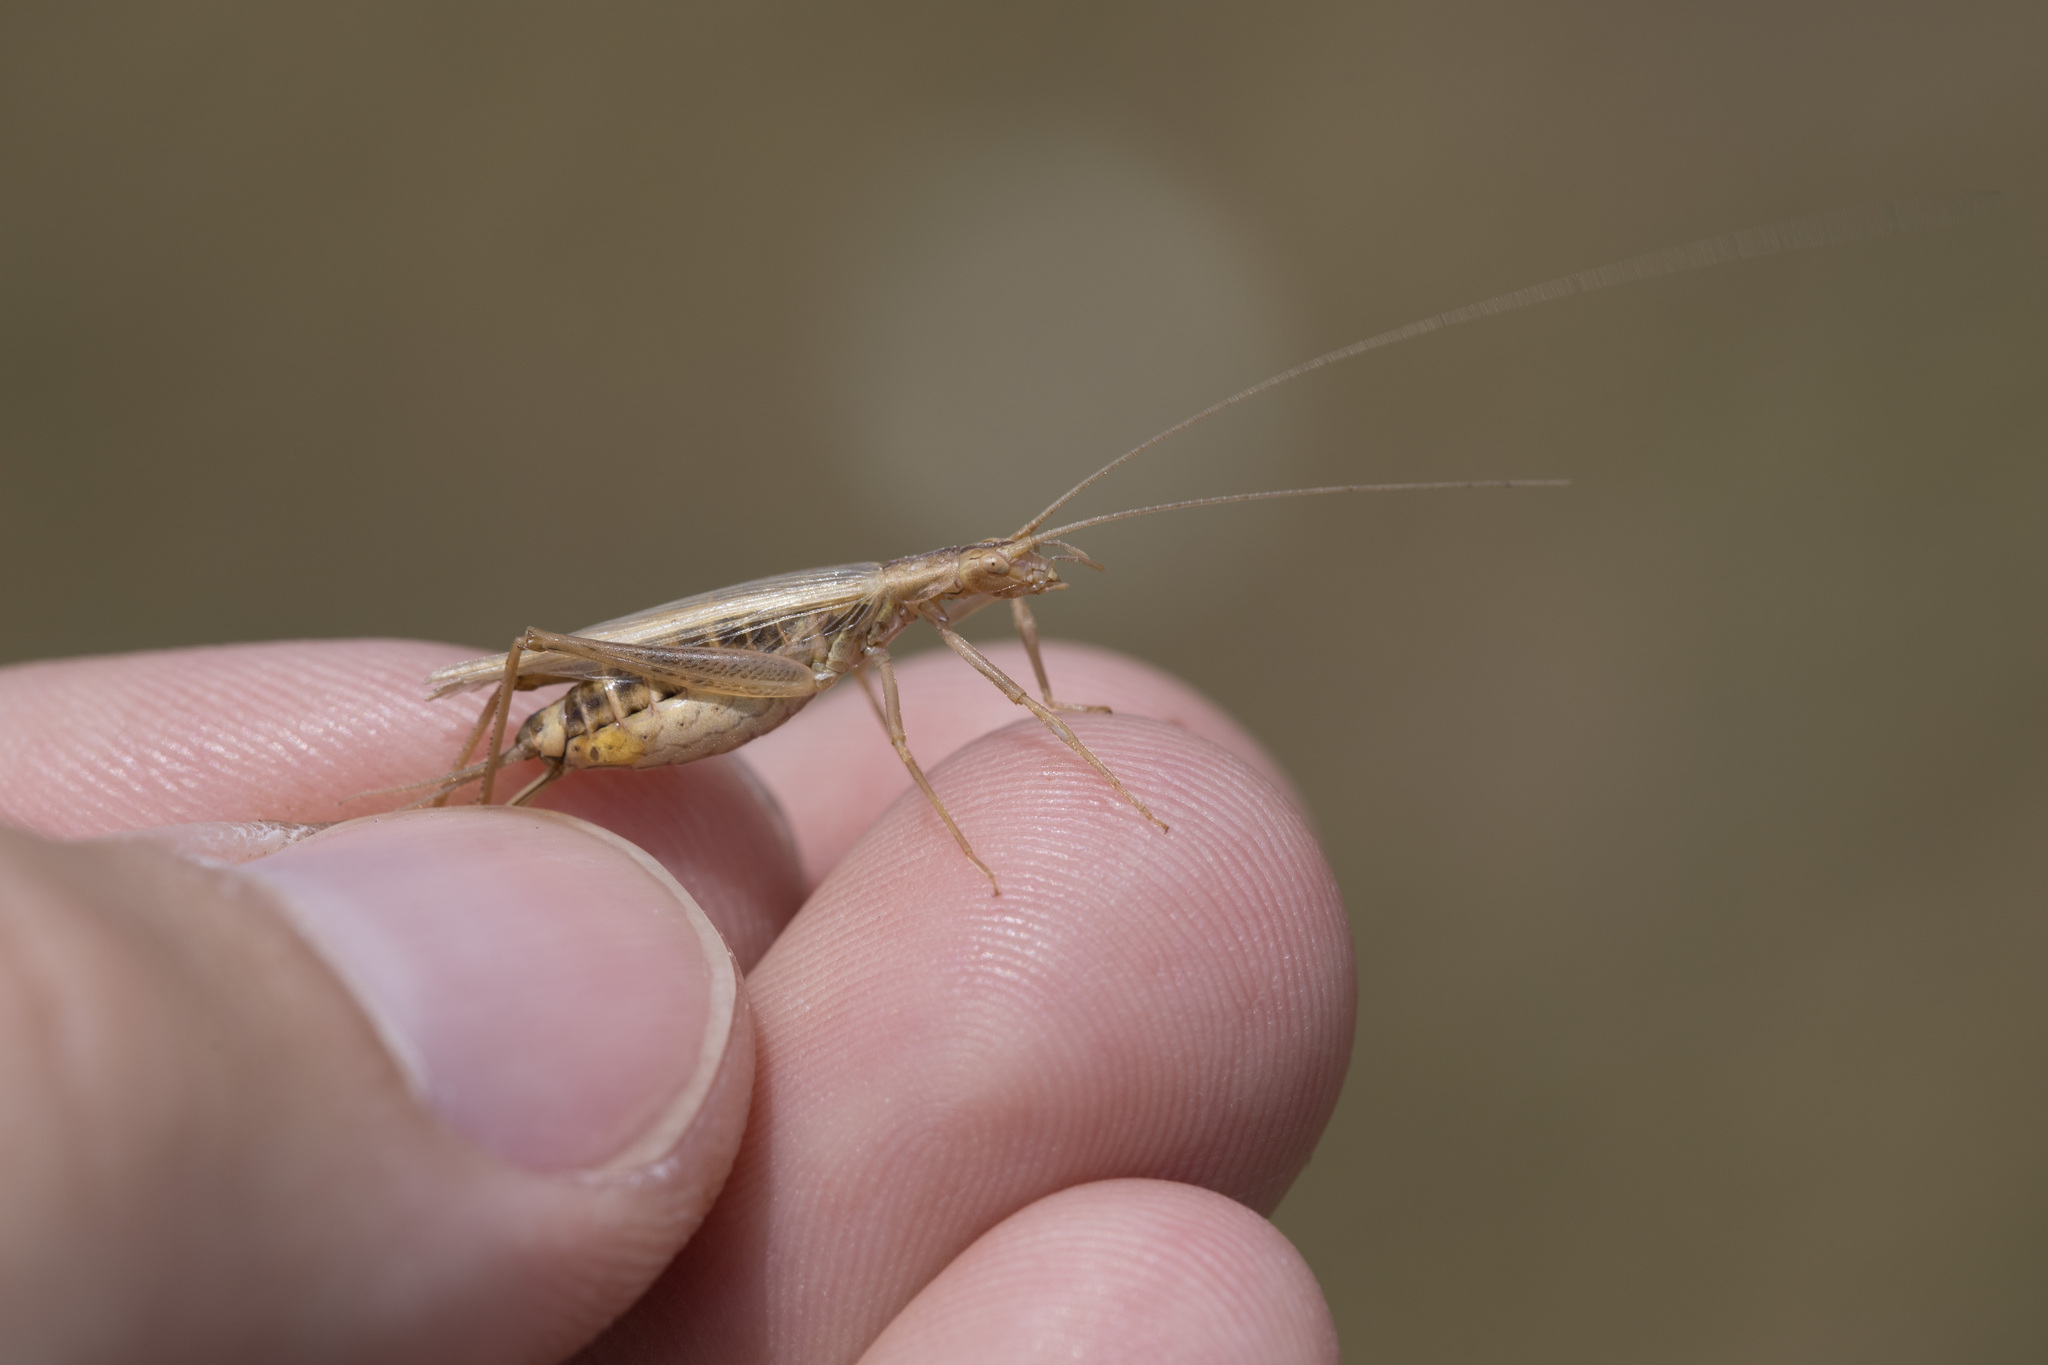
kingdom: Animalia
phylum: Arthropoda
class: Insecta
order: Orthoptera
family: Gryllidae
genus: Oecanthus
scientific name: Oecanthus pellucens
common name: Tree-cricket
